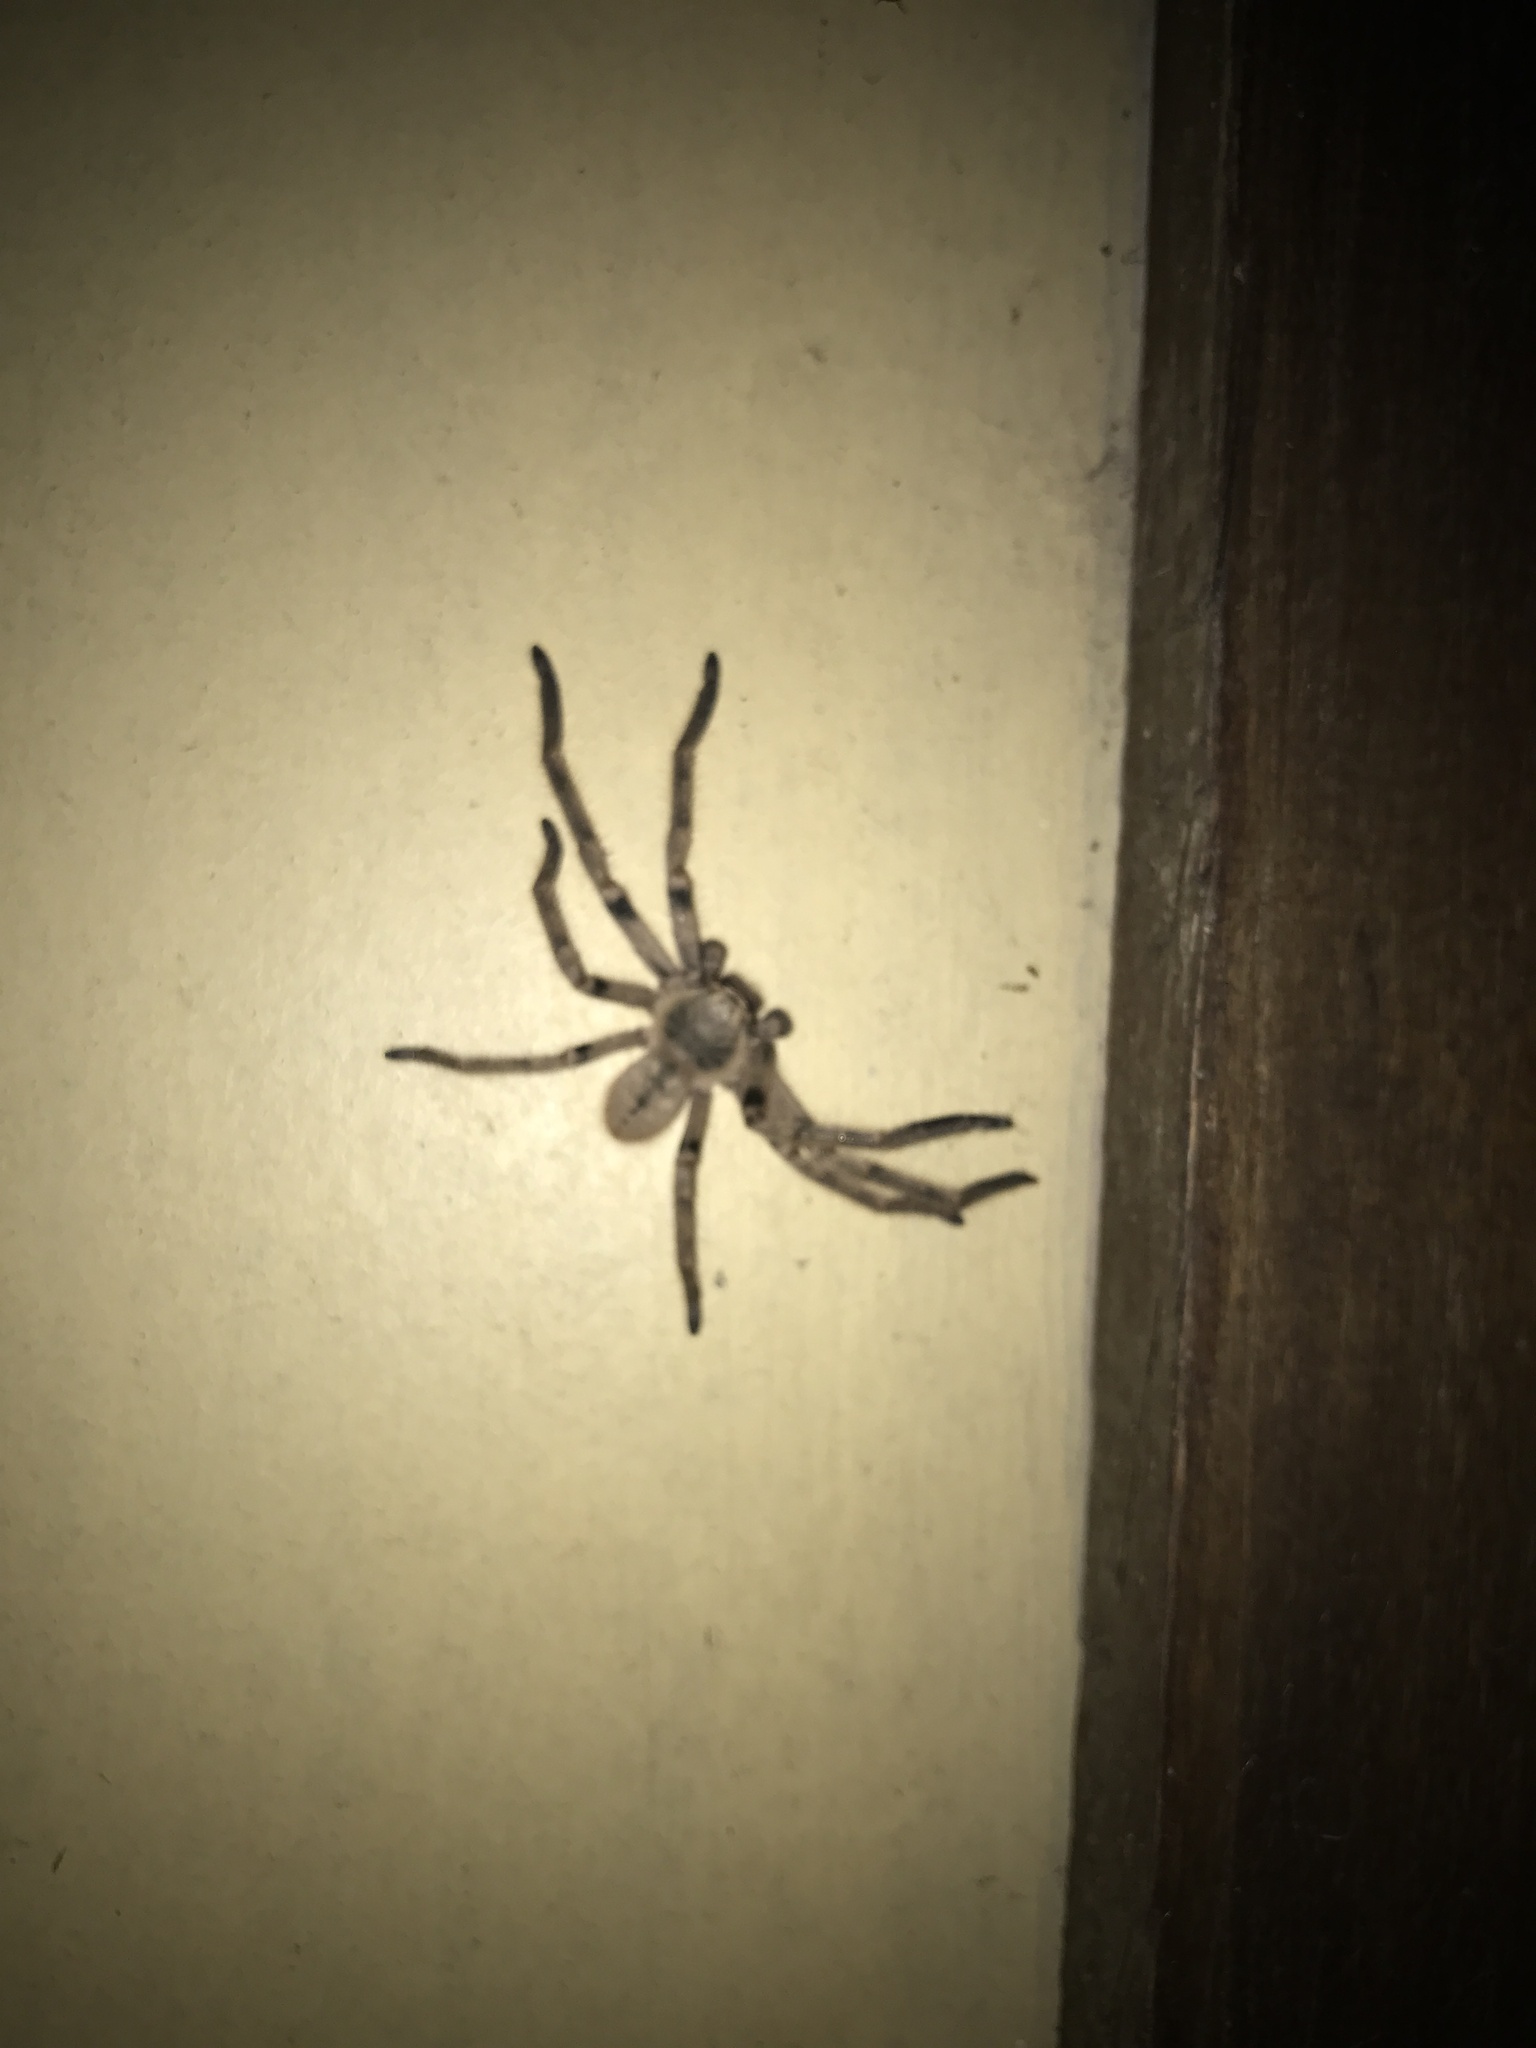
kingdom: Animalia
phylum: Arthropoda
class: Arachnida
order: Araneae
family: Sparassidae
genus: Polybetes
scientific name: Polybetes pythagoricus
